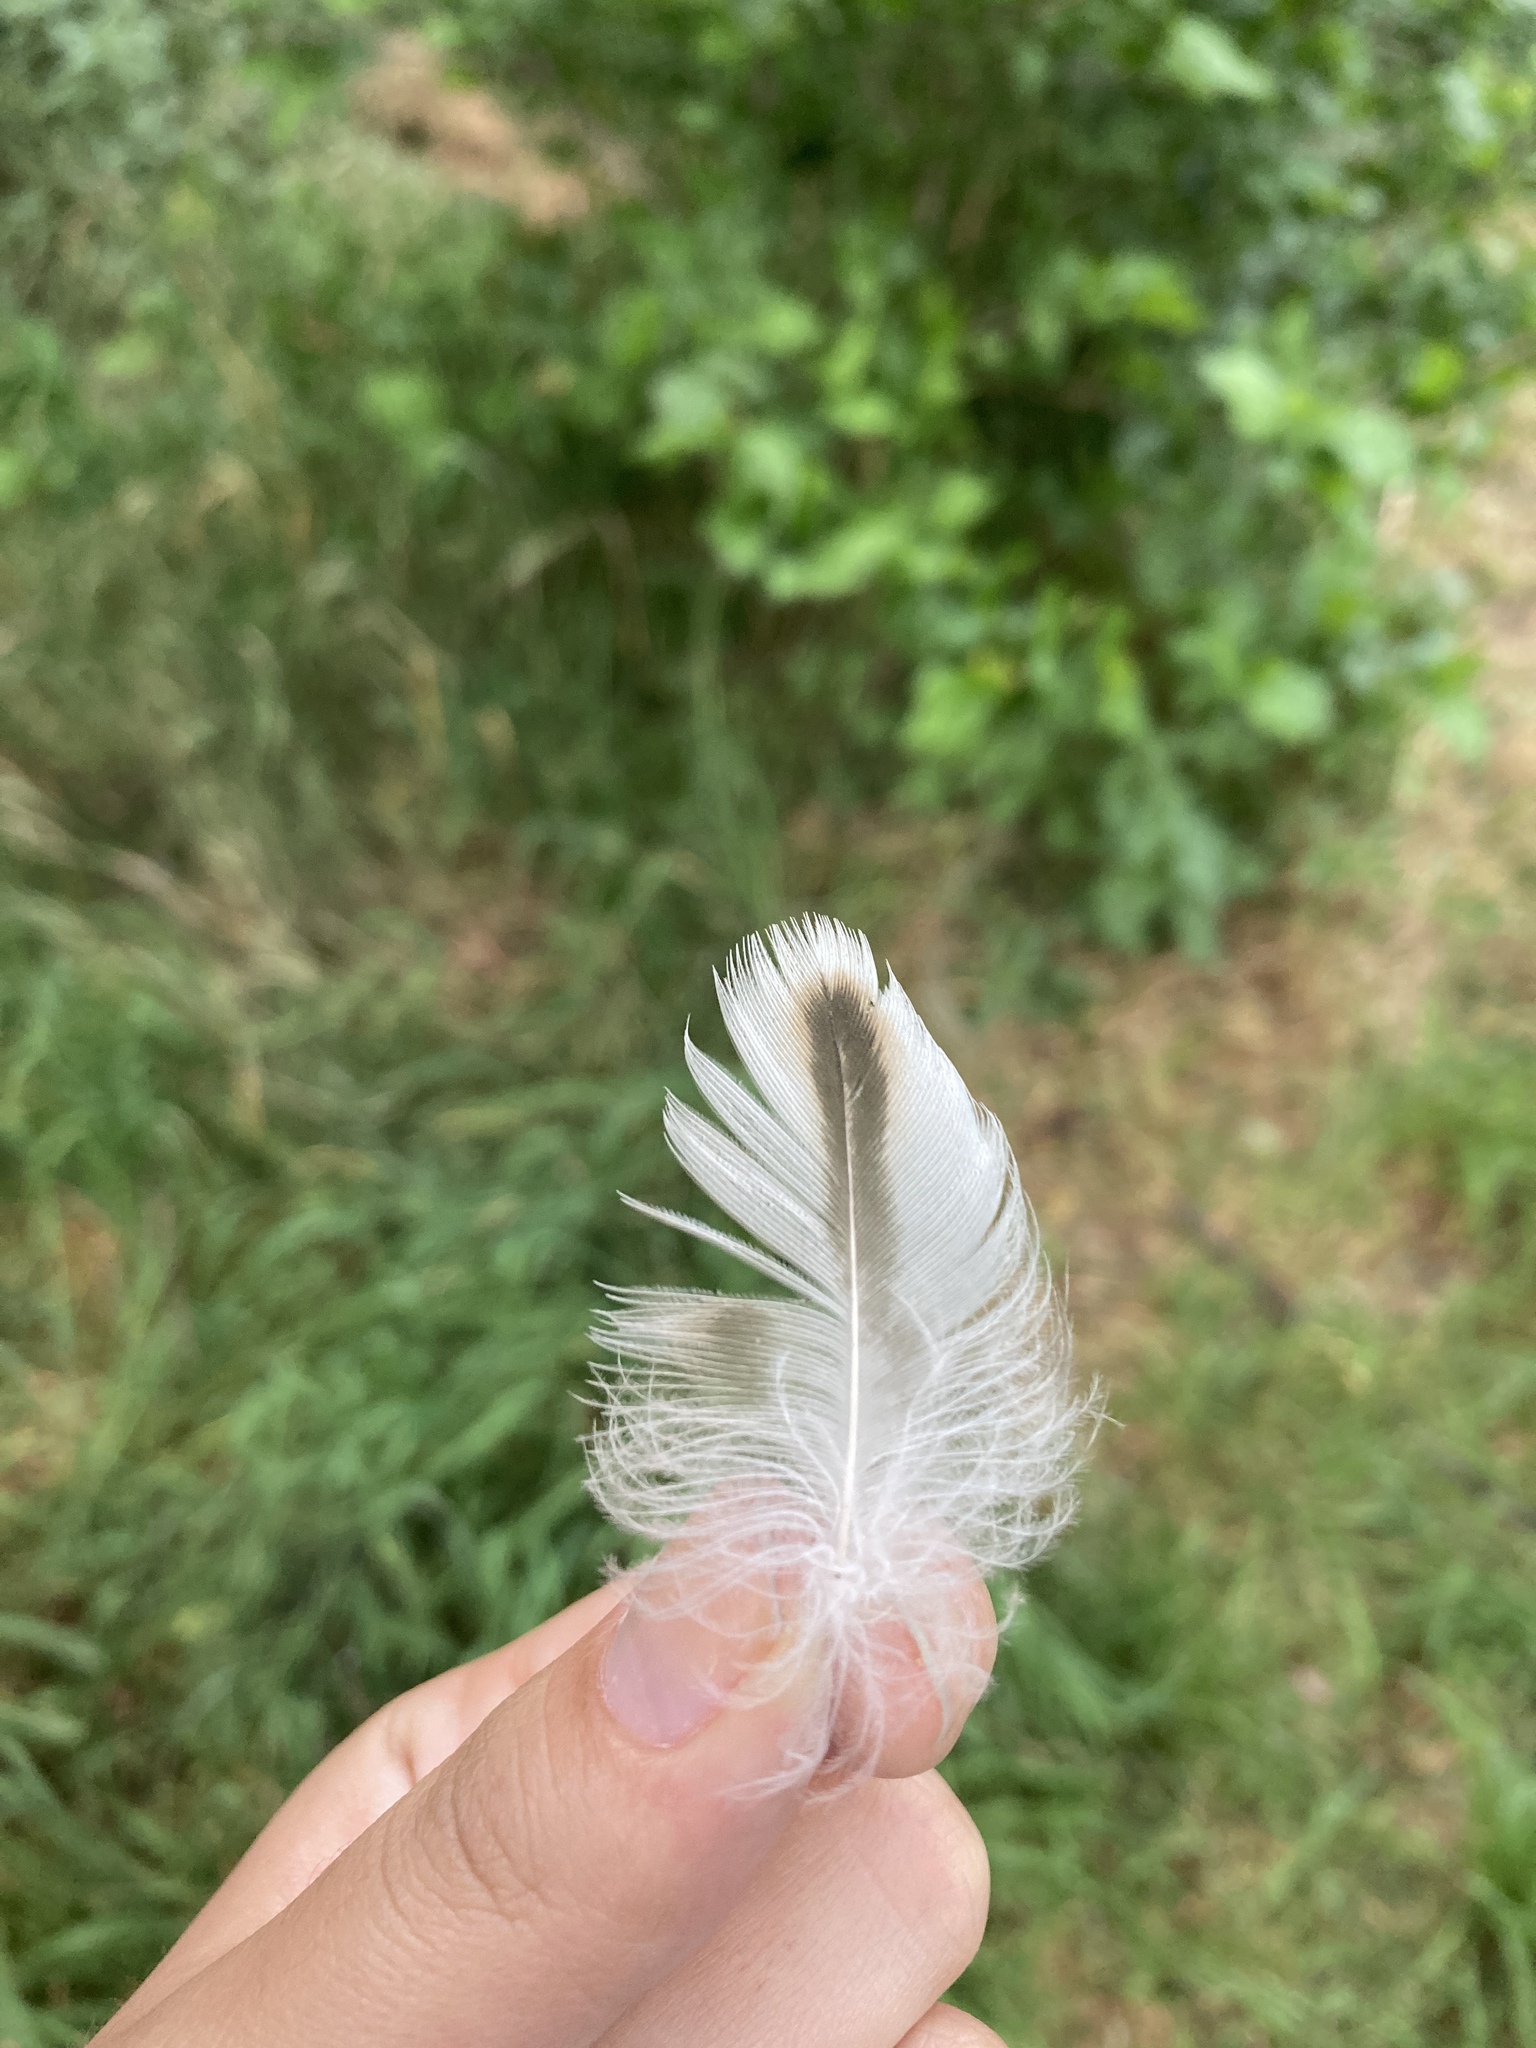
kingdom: Animalia
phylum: Chordata
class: Aves
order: Anseriformes
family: Anatidae
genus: Anas
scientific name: Anas platyrhynchos
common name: Mallard
